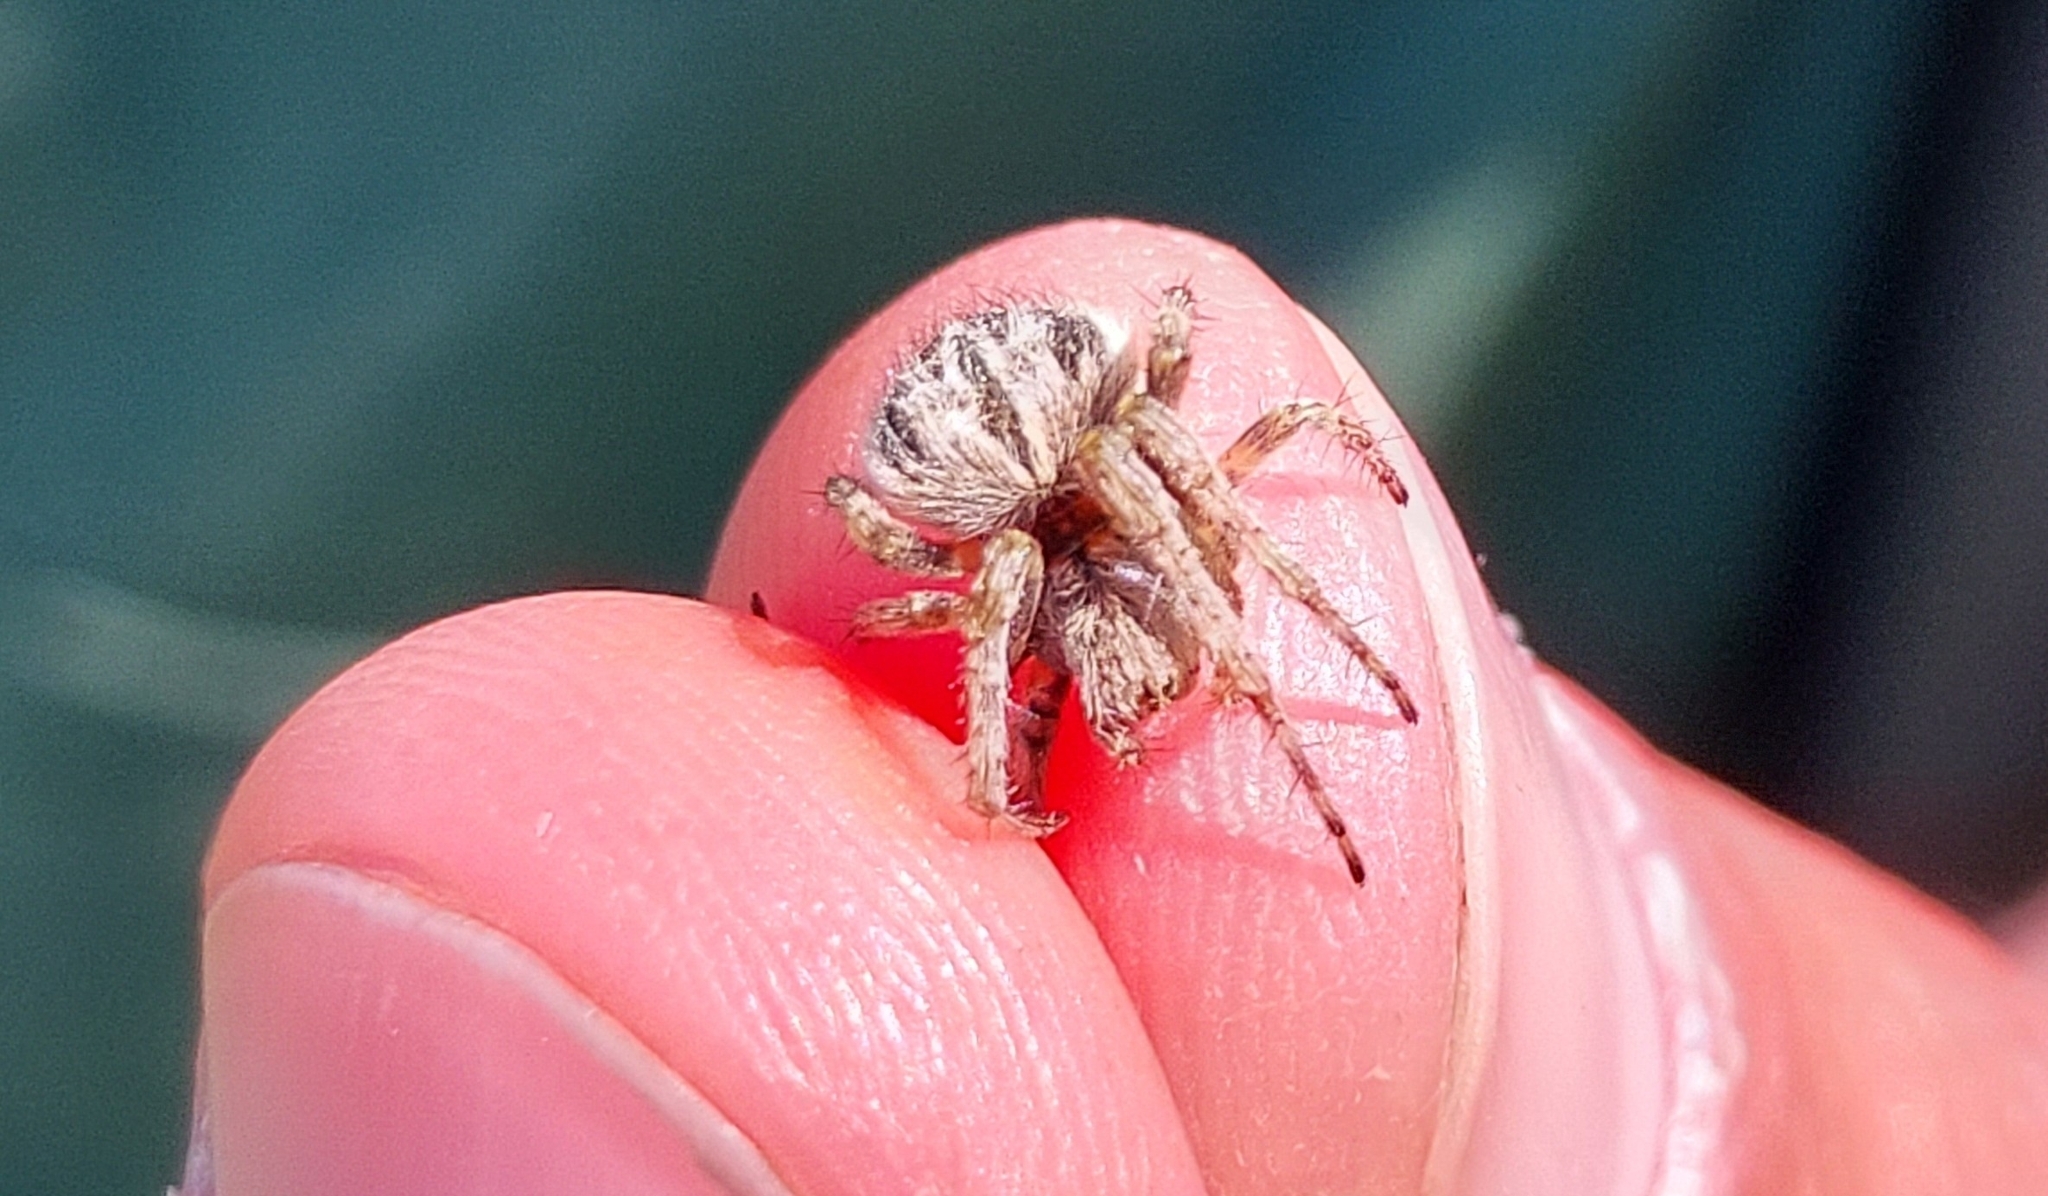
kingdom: Animalia
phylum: Arthropoda
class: Arachnida
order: Araneae
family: Araneidae
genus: Agalenatea
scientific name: Agalenatea redii
